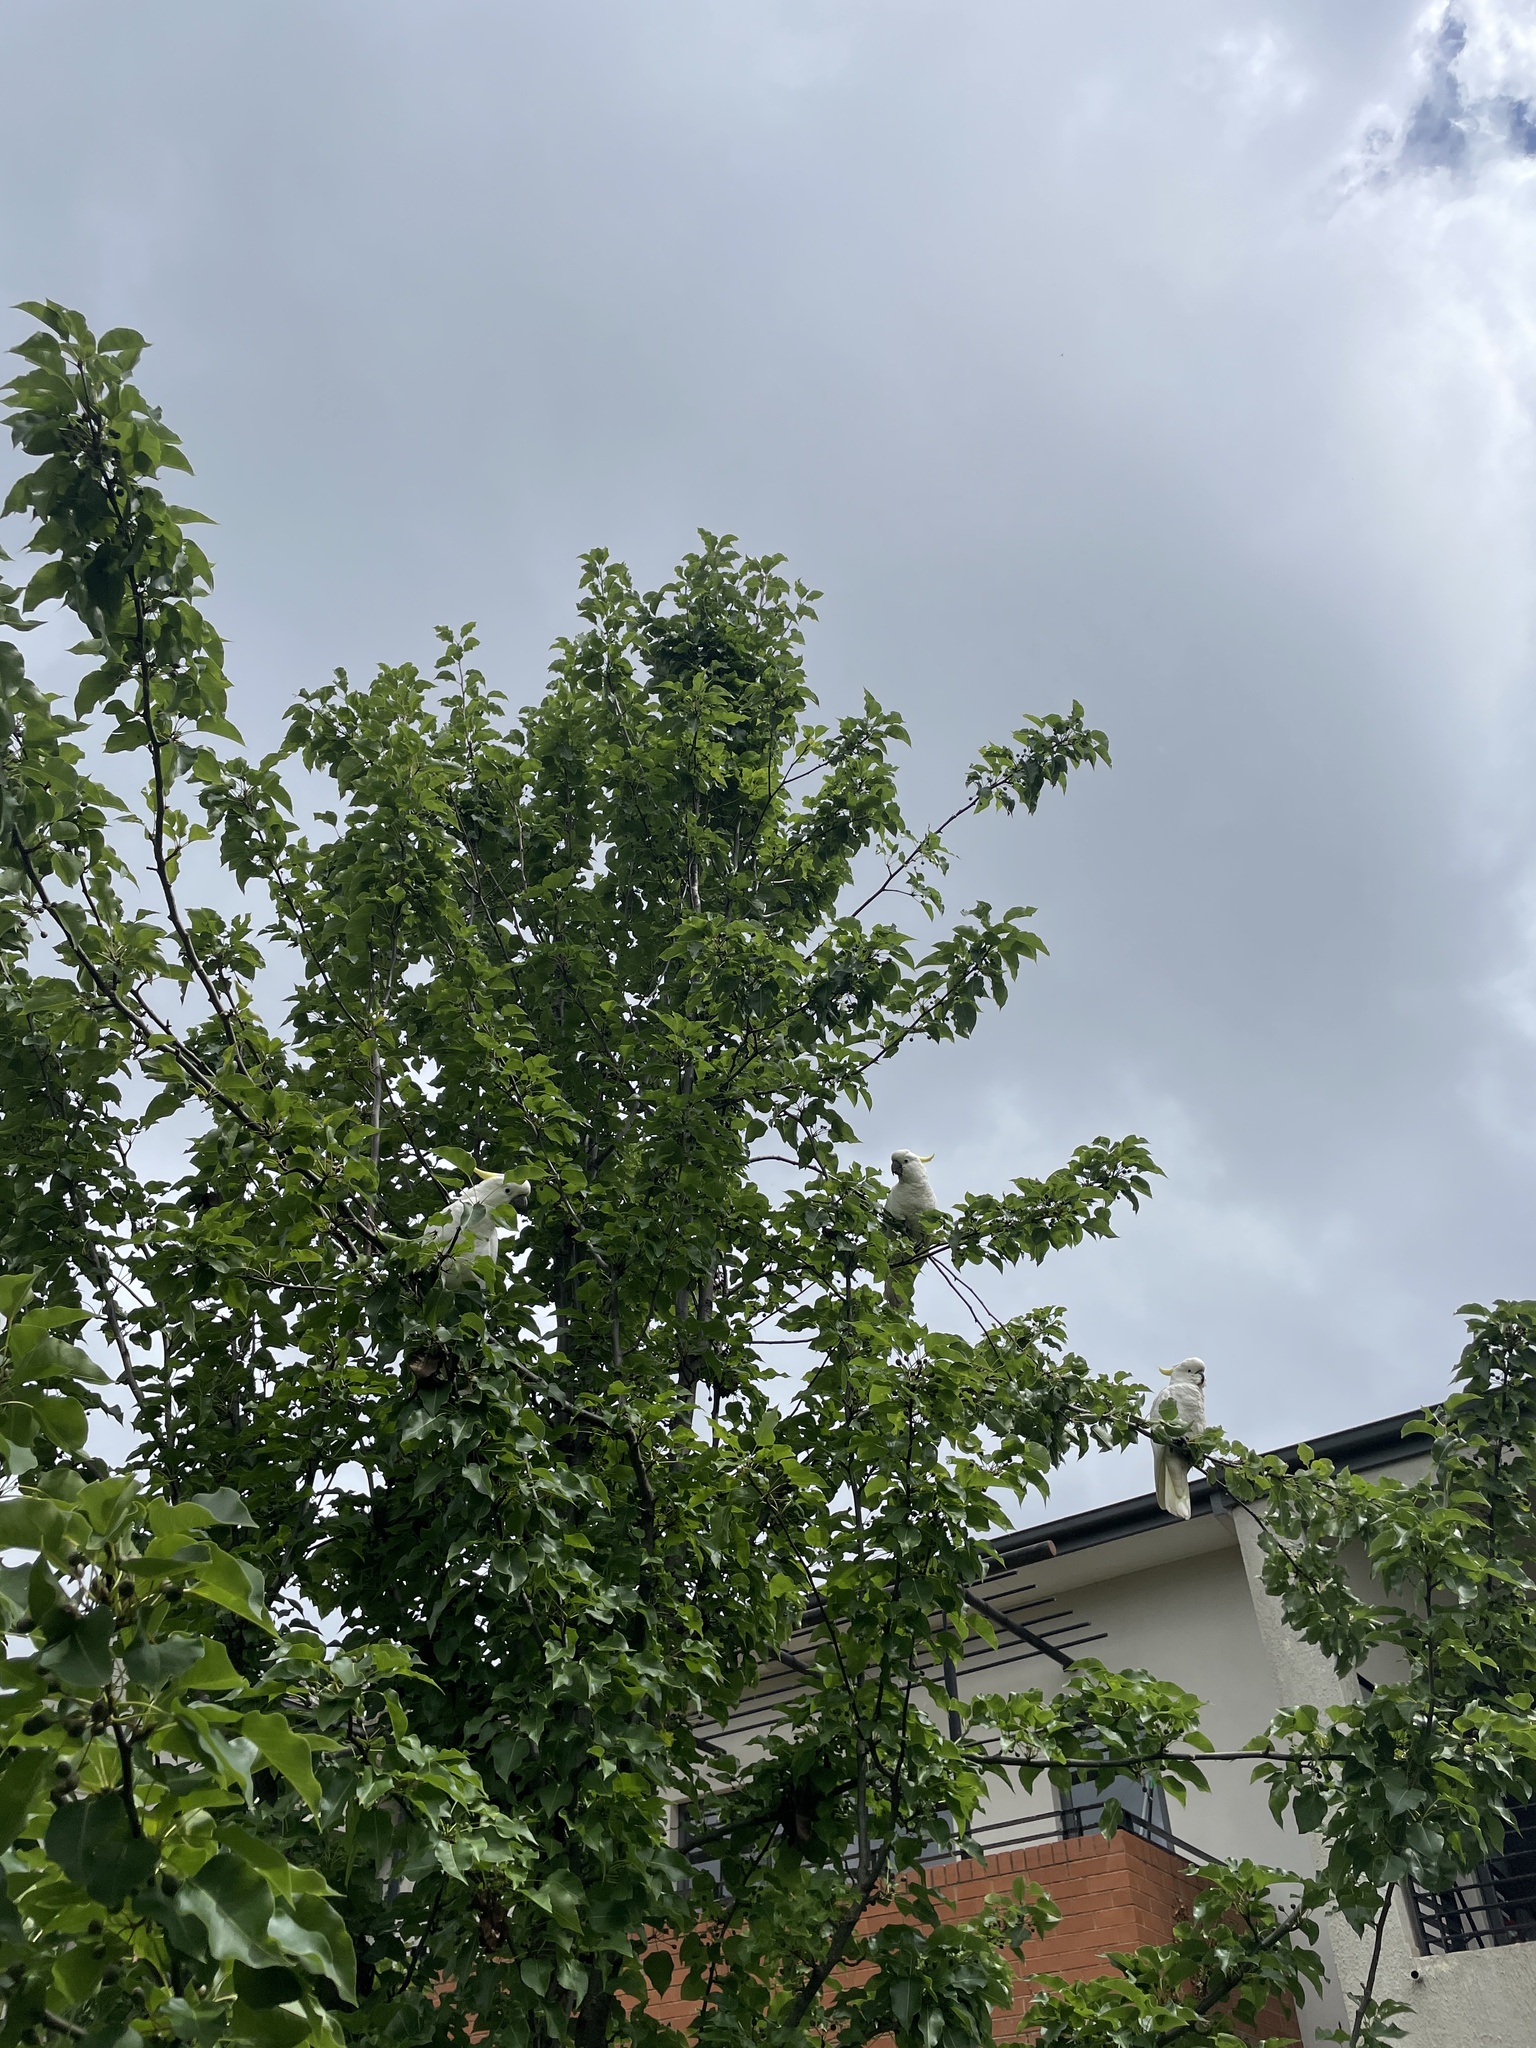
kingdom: Animalia
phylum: Chordata
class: Aves
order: Psittaciformes
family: Psittacidae
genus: Cacatua
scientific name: Cacatua galerita
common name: Sulphur-crested cockatoo
